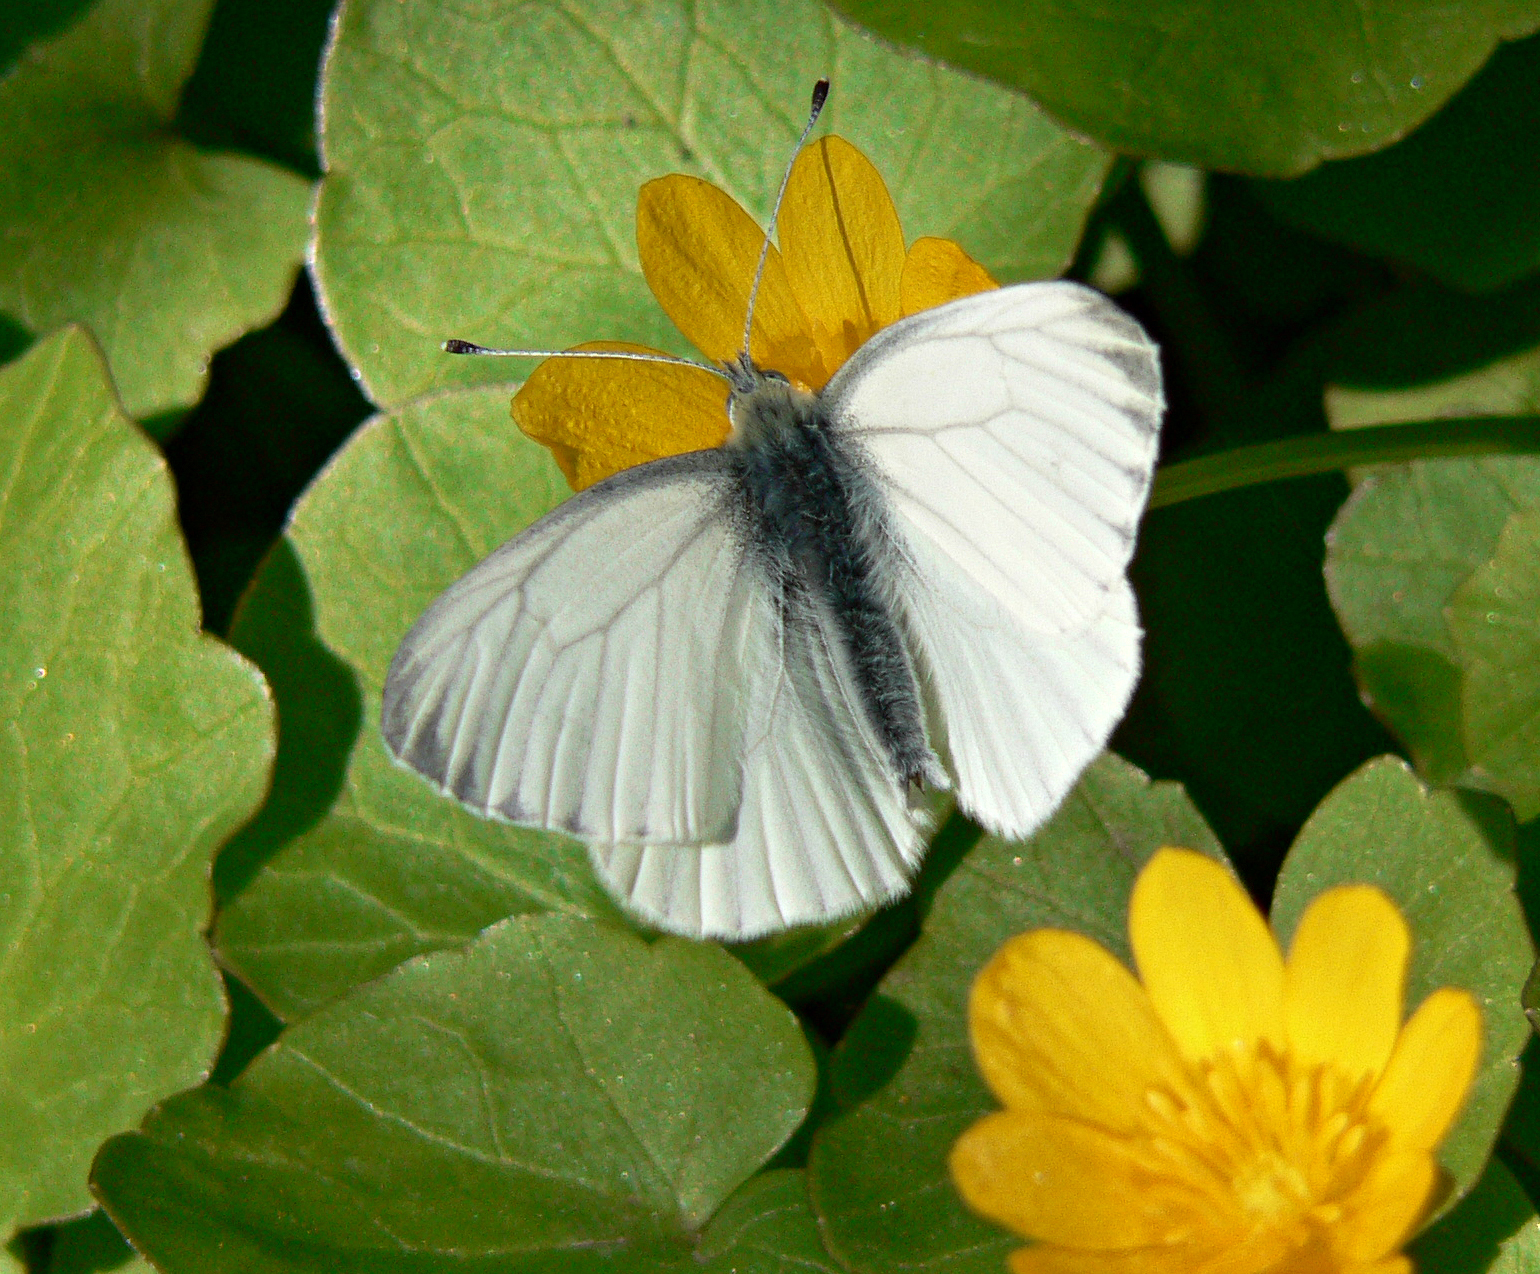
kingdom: Animalia
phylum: Arthropoda
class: Insecta
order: Lepidoptera
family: Pieridae
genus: Pieris
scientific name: Pieris napi
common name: Green-veined white
